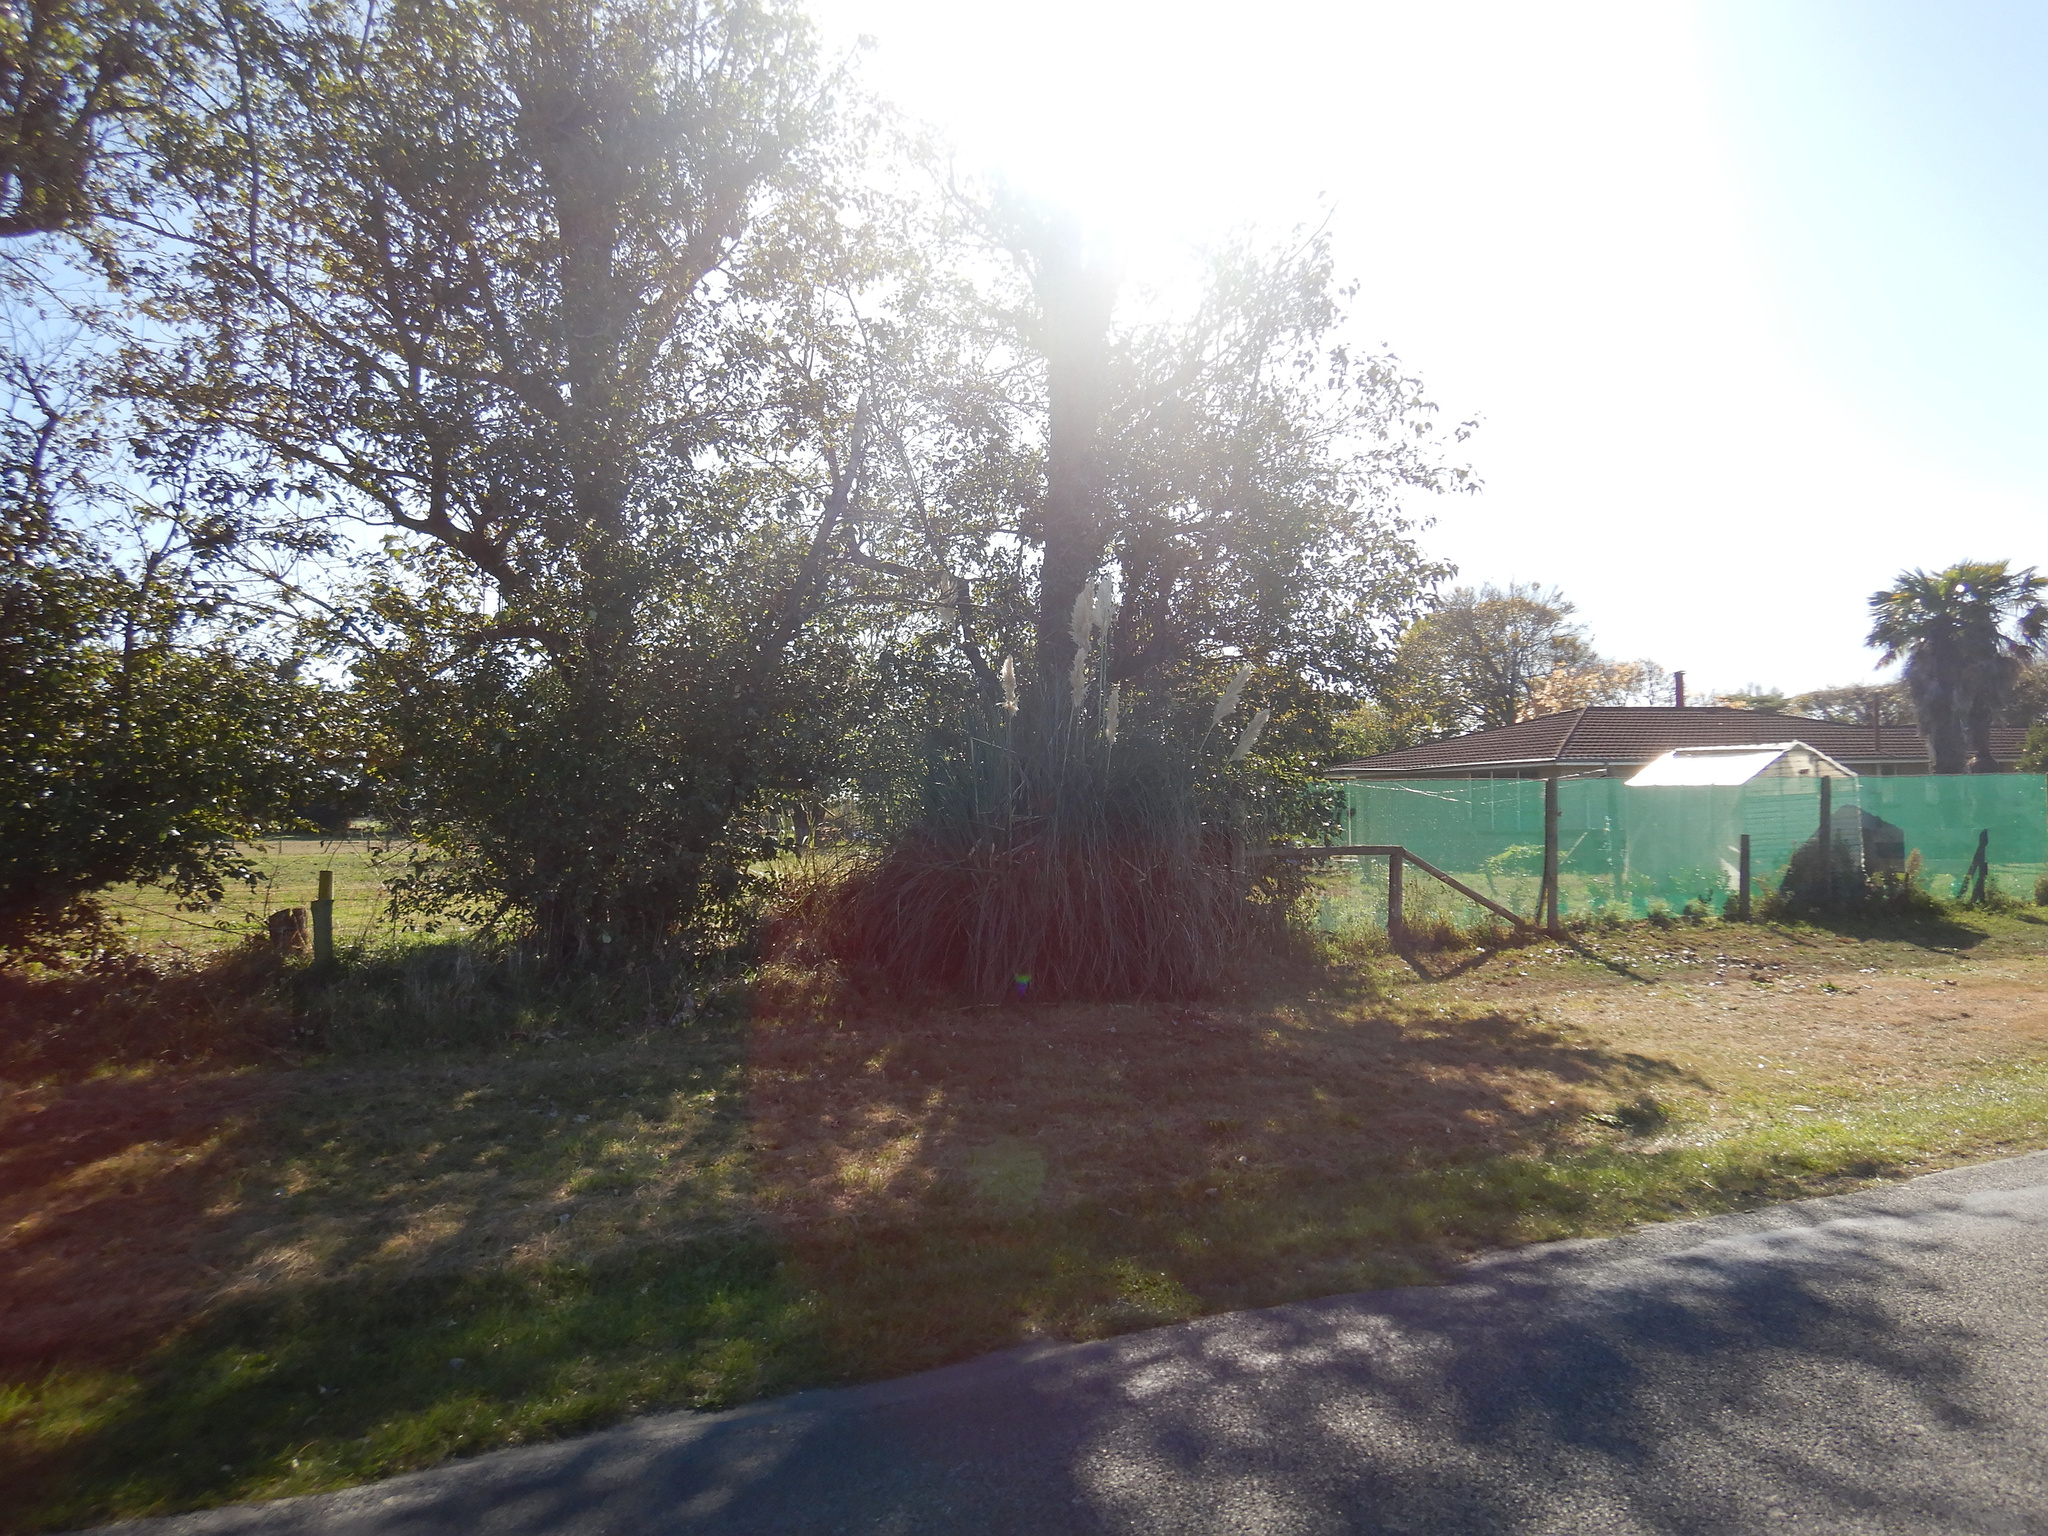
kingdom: Plantae
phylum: Tracheophyta
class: Liliopsida
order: Poales
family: Poaceae
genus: Cortaderia
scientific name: Cortaderia selloana
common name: Uruguayan pampas grass
